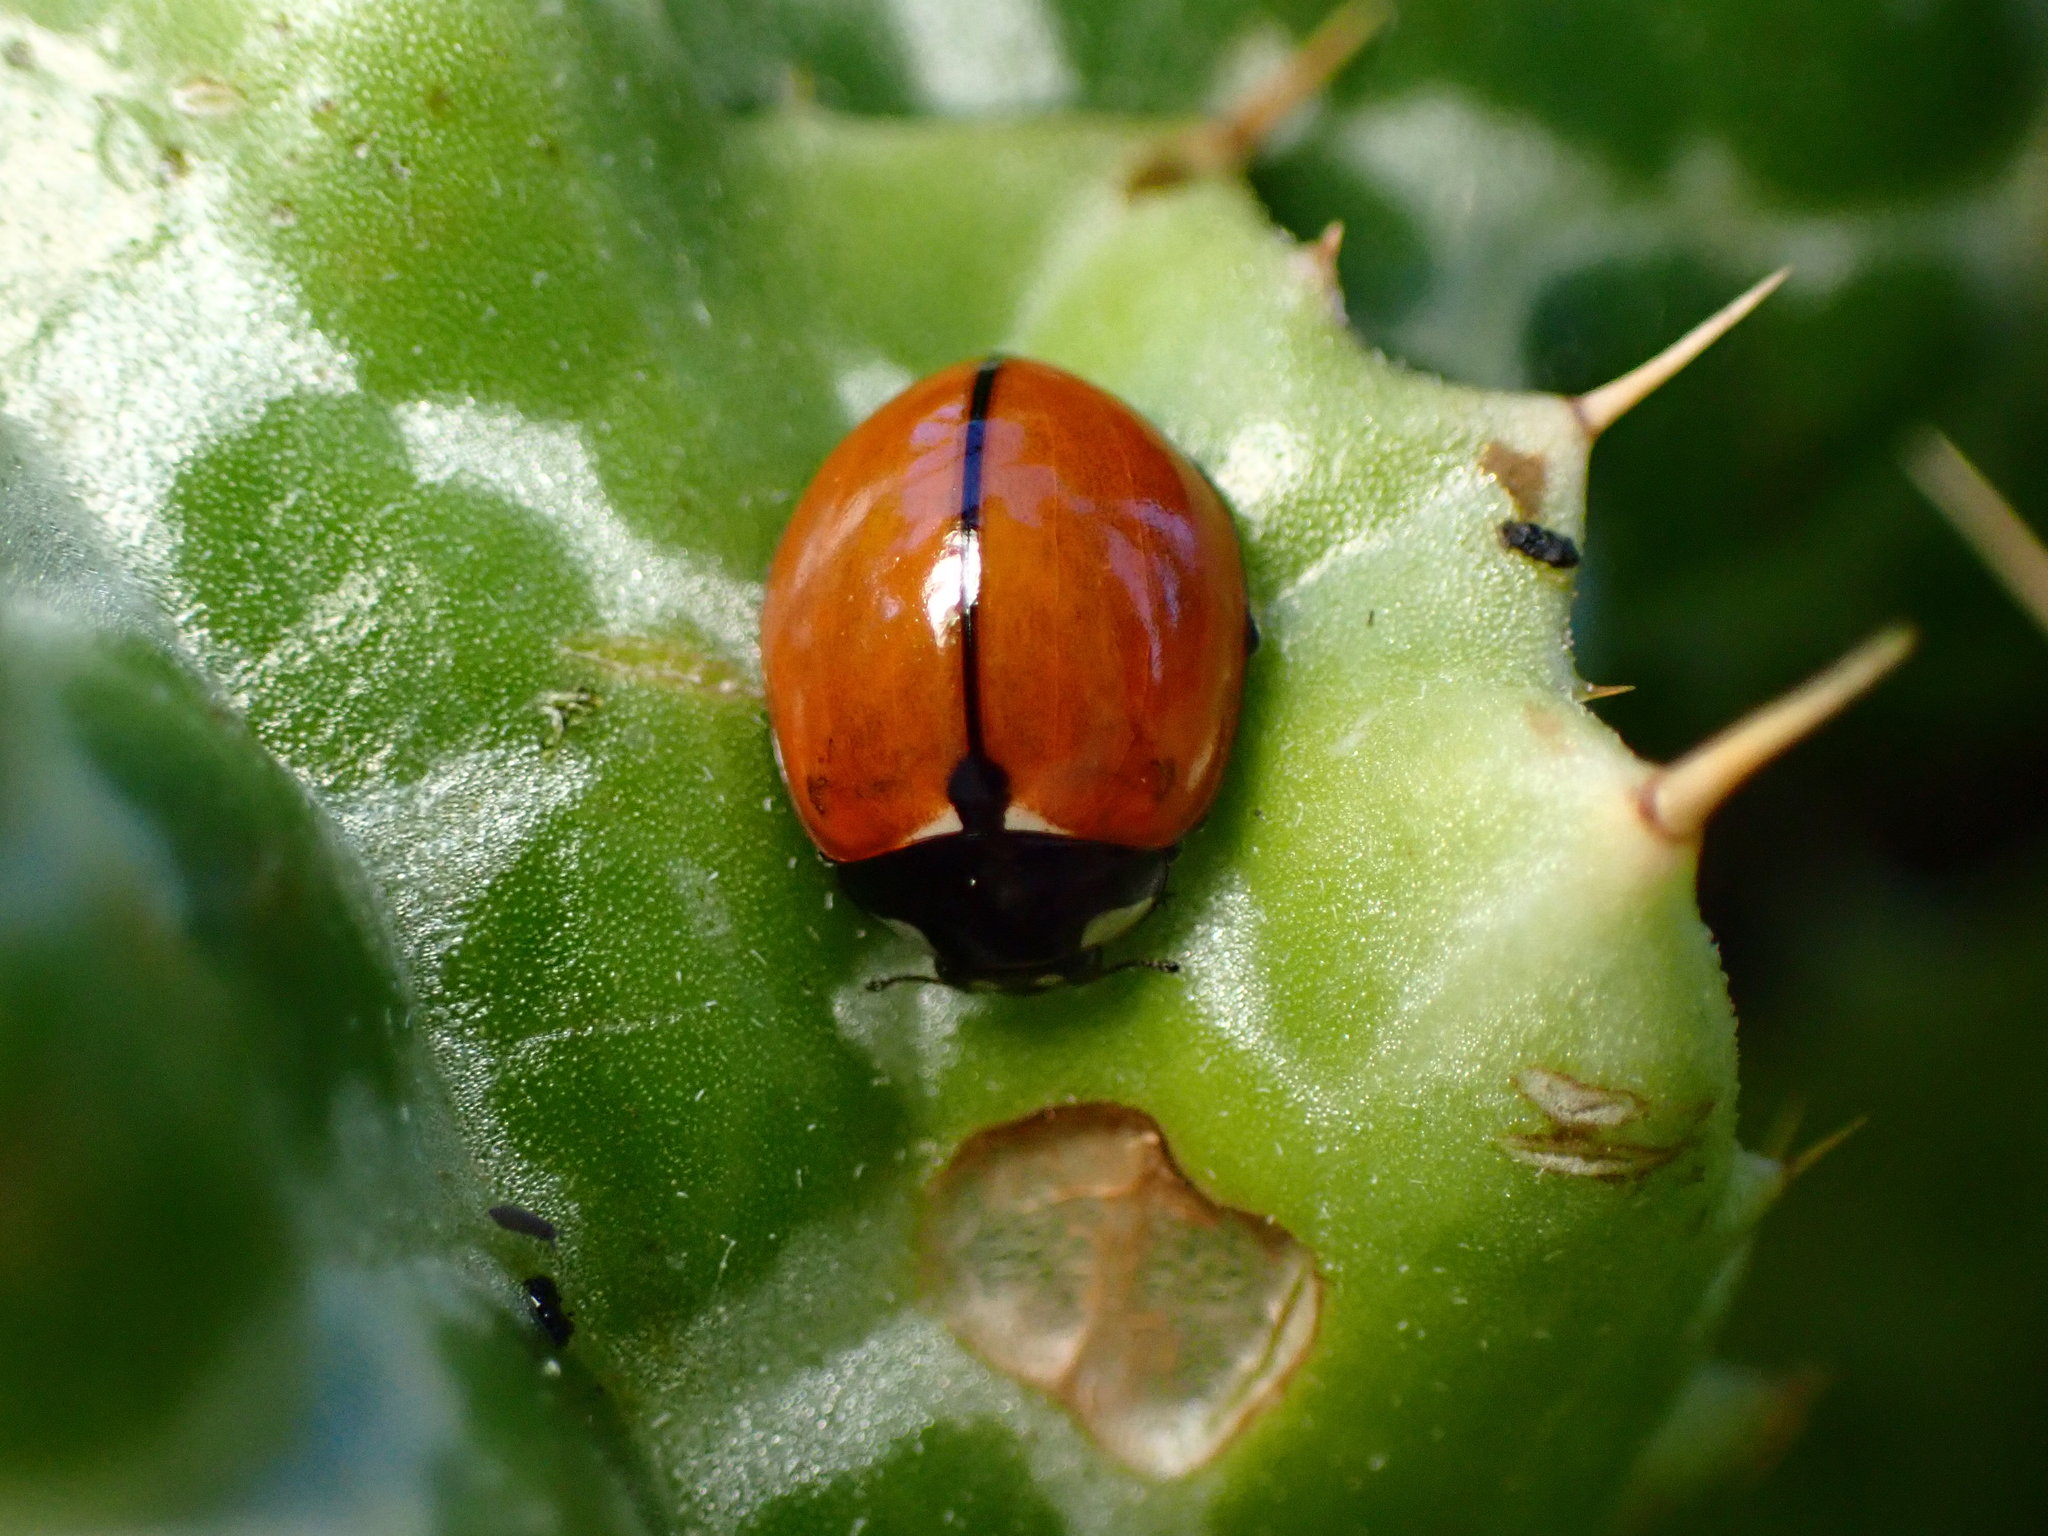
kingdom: Animalia
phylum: Arthropoda
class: Insecta
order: Coleoptera
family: Coccinellidae
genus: Coccinella
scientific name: Coccinella californica
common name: Lady beetle
